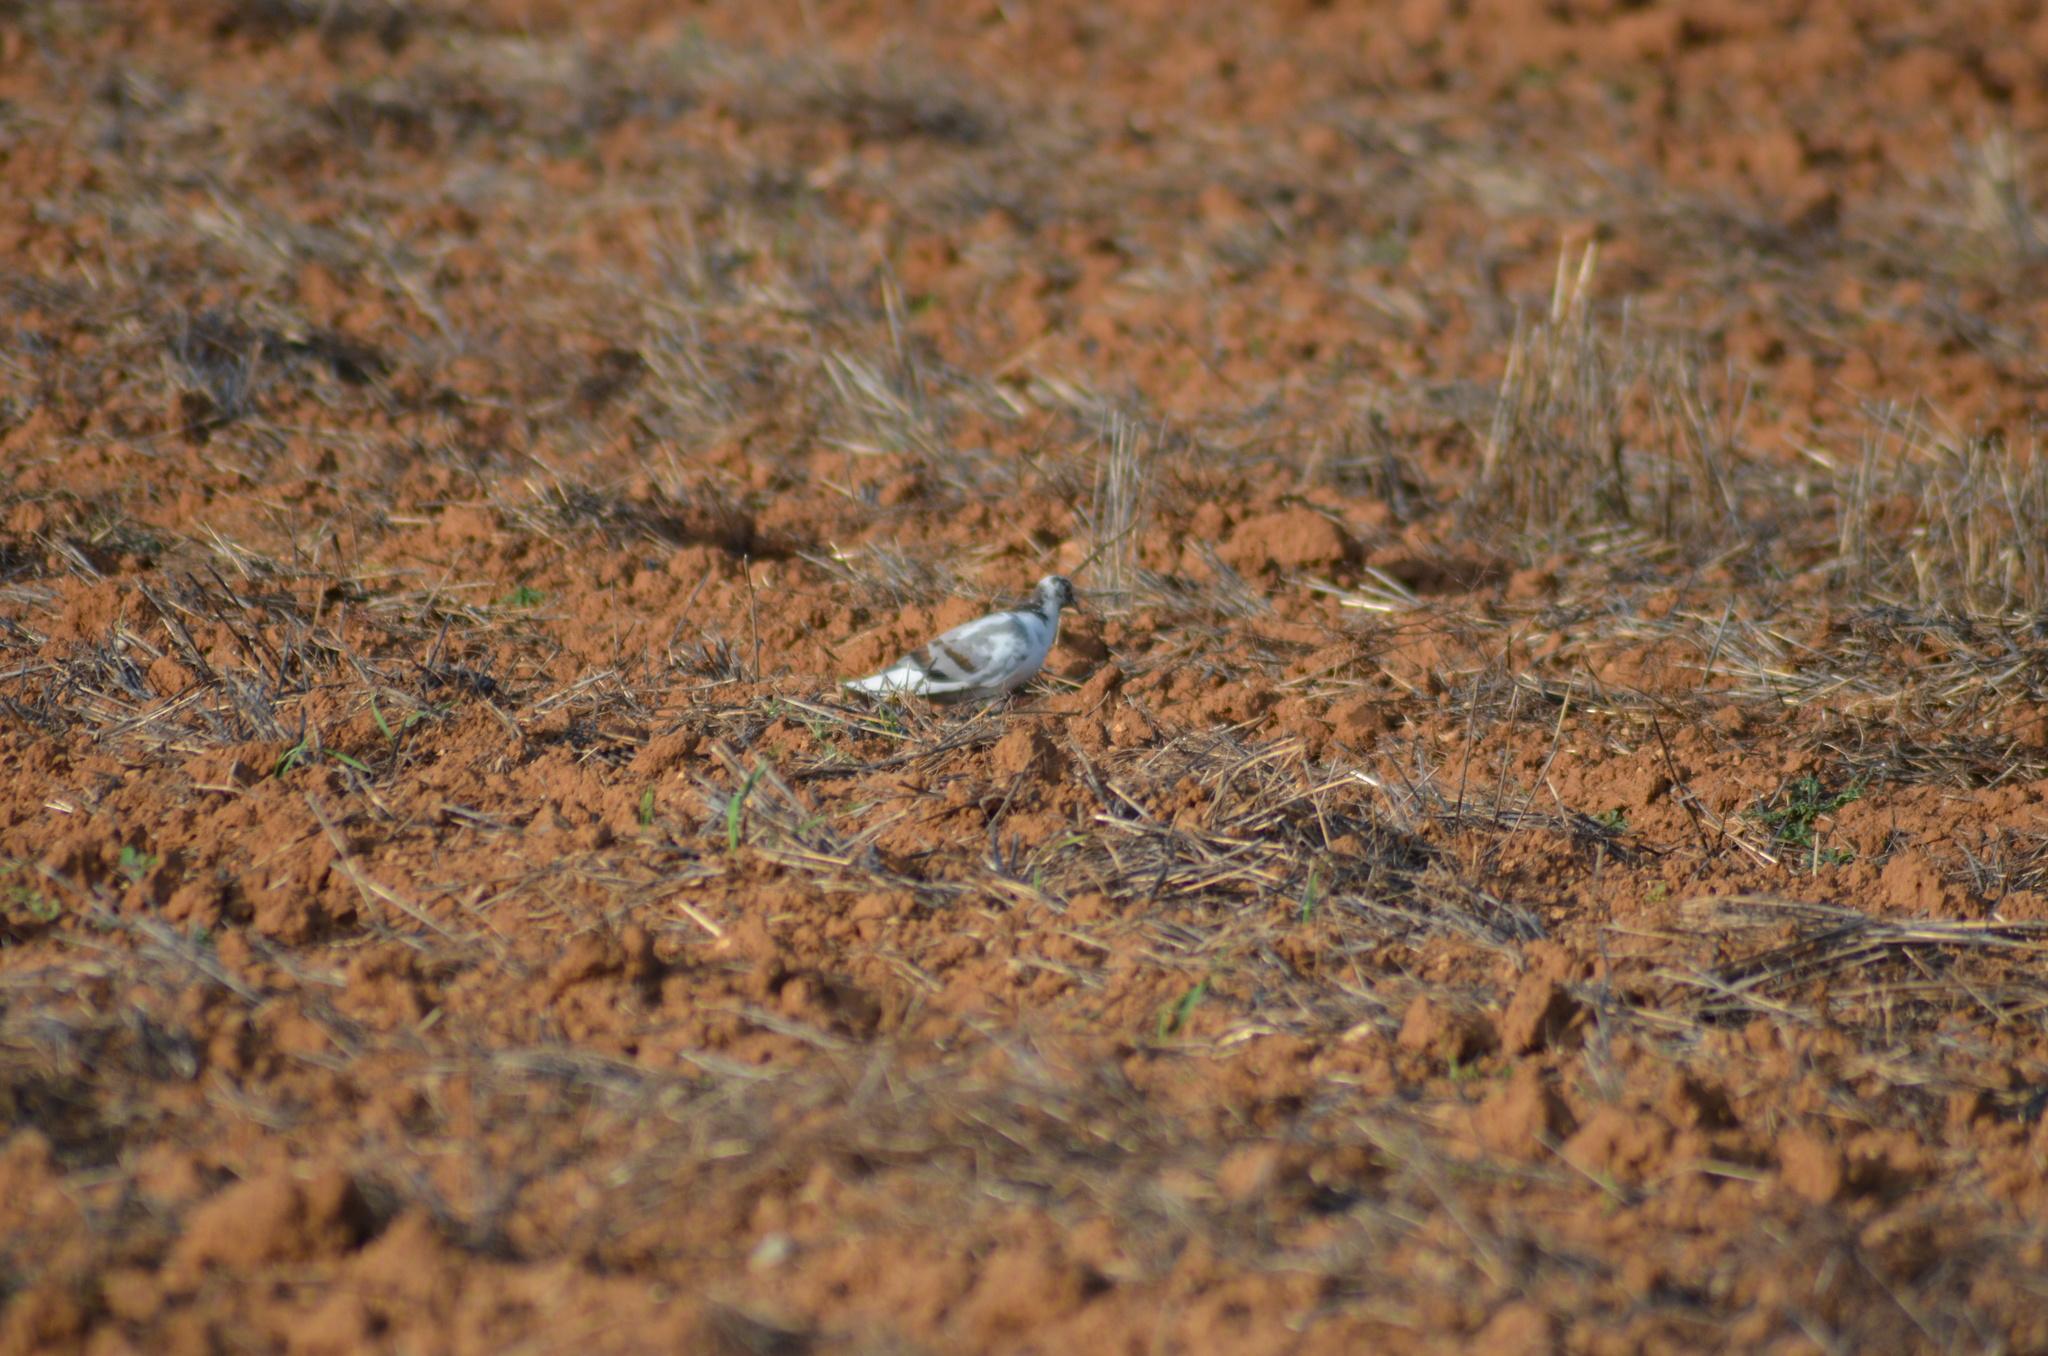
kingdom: Animalia
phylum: Chordata
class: Aves
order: Columbiformes
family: Columbidae
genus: Columba
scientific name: Columba livia
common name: Rock pigeon
